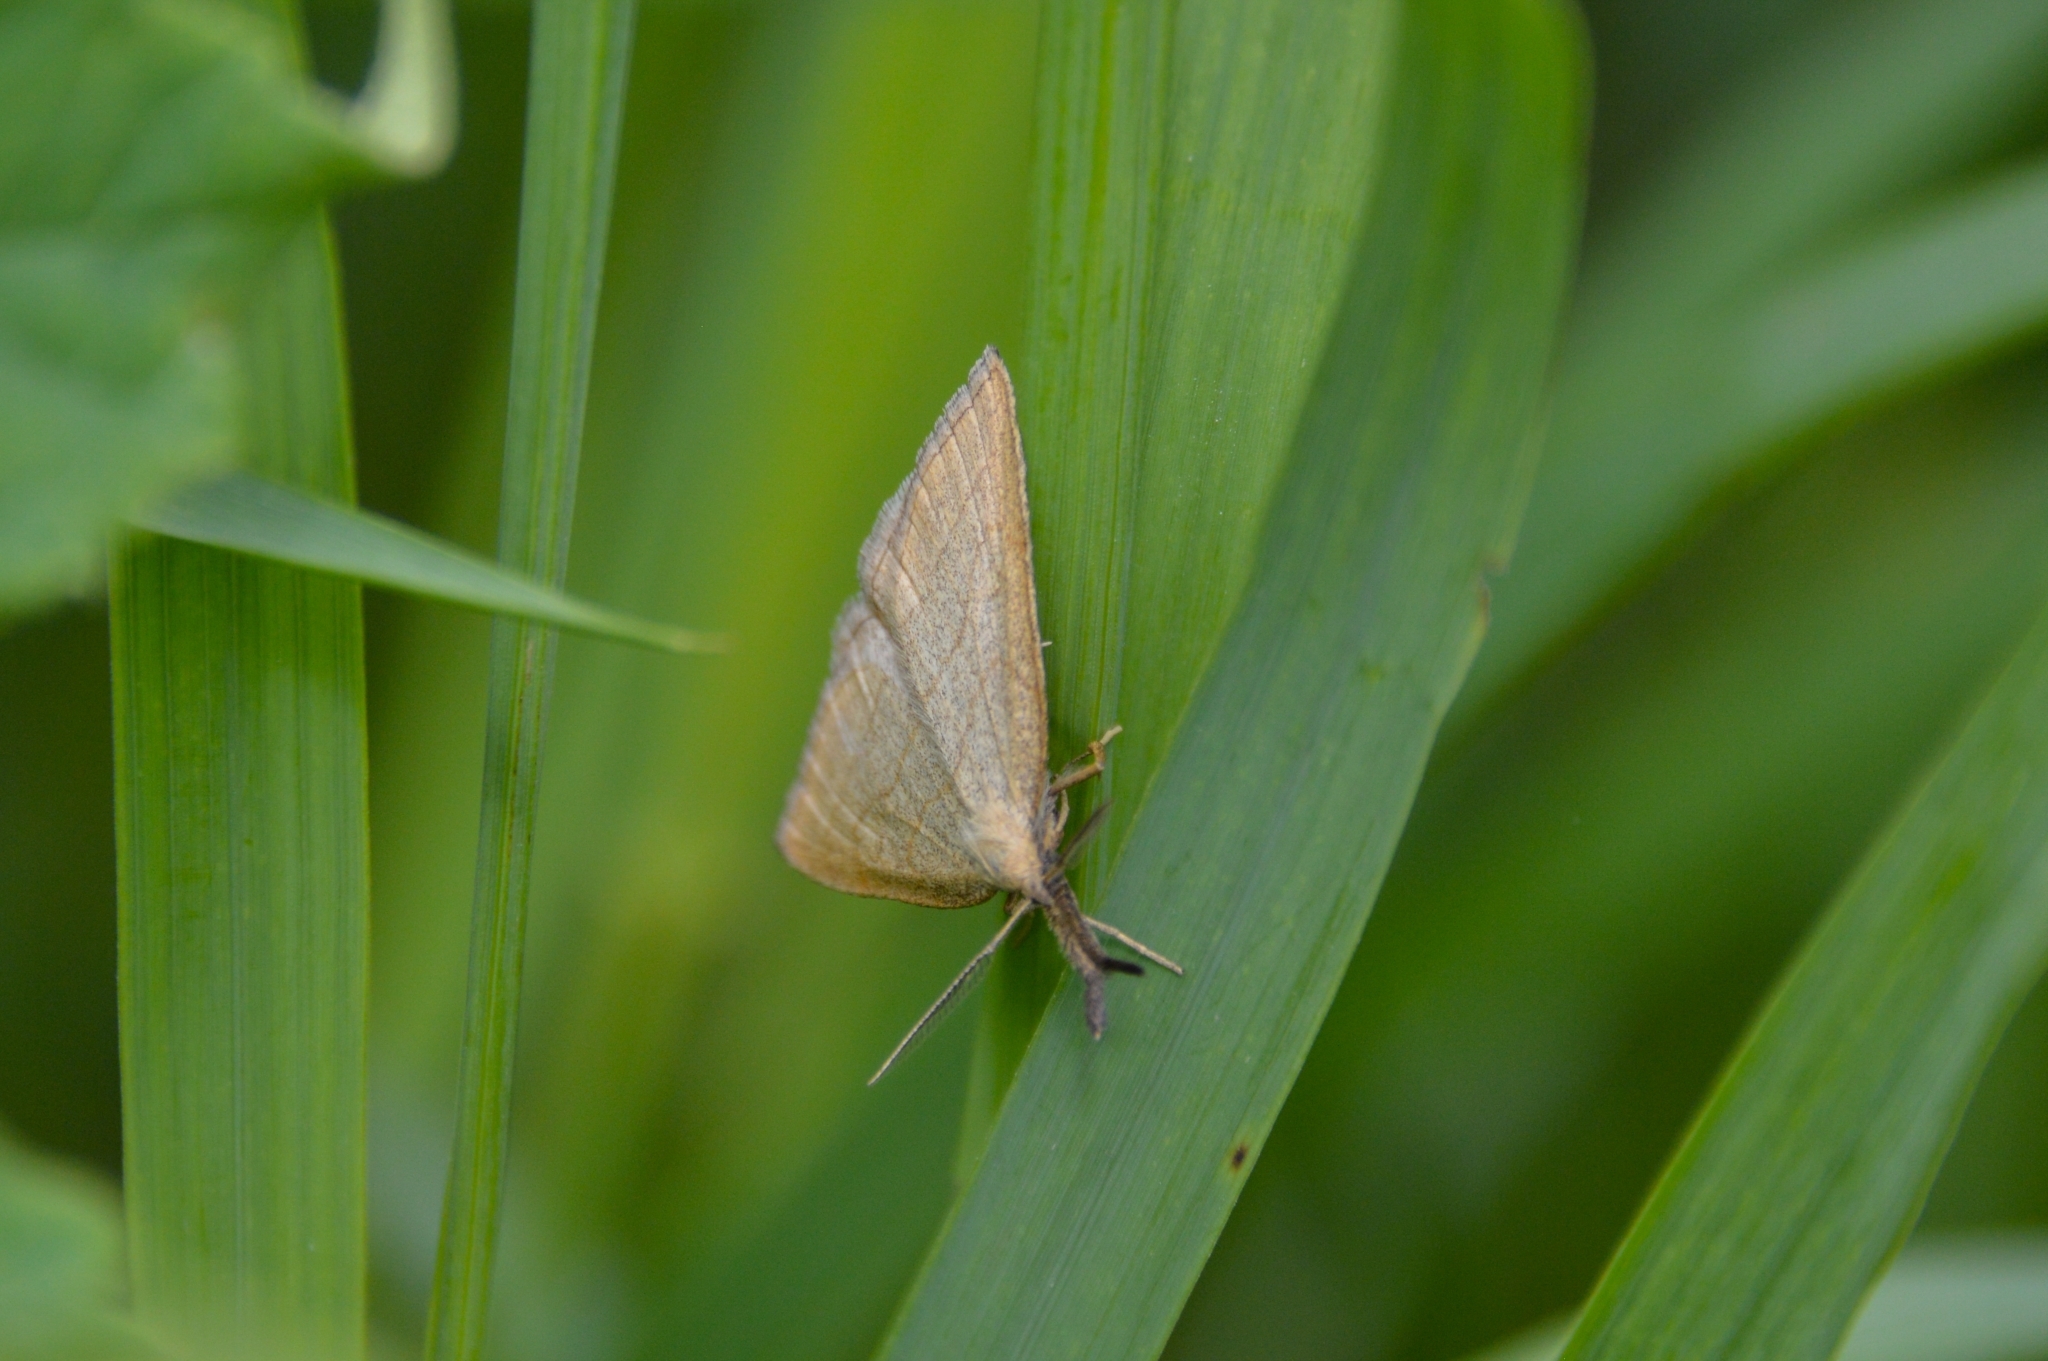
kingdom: Animalia
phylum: Arthropoda
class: Insecta
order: Lepidoptera
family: Erebidae
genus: Polypogon
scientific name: Polypogon tentacularia
